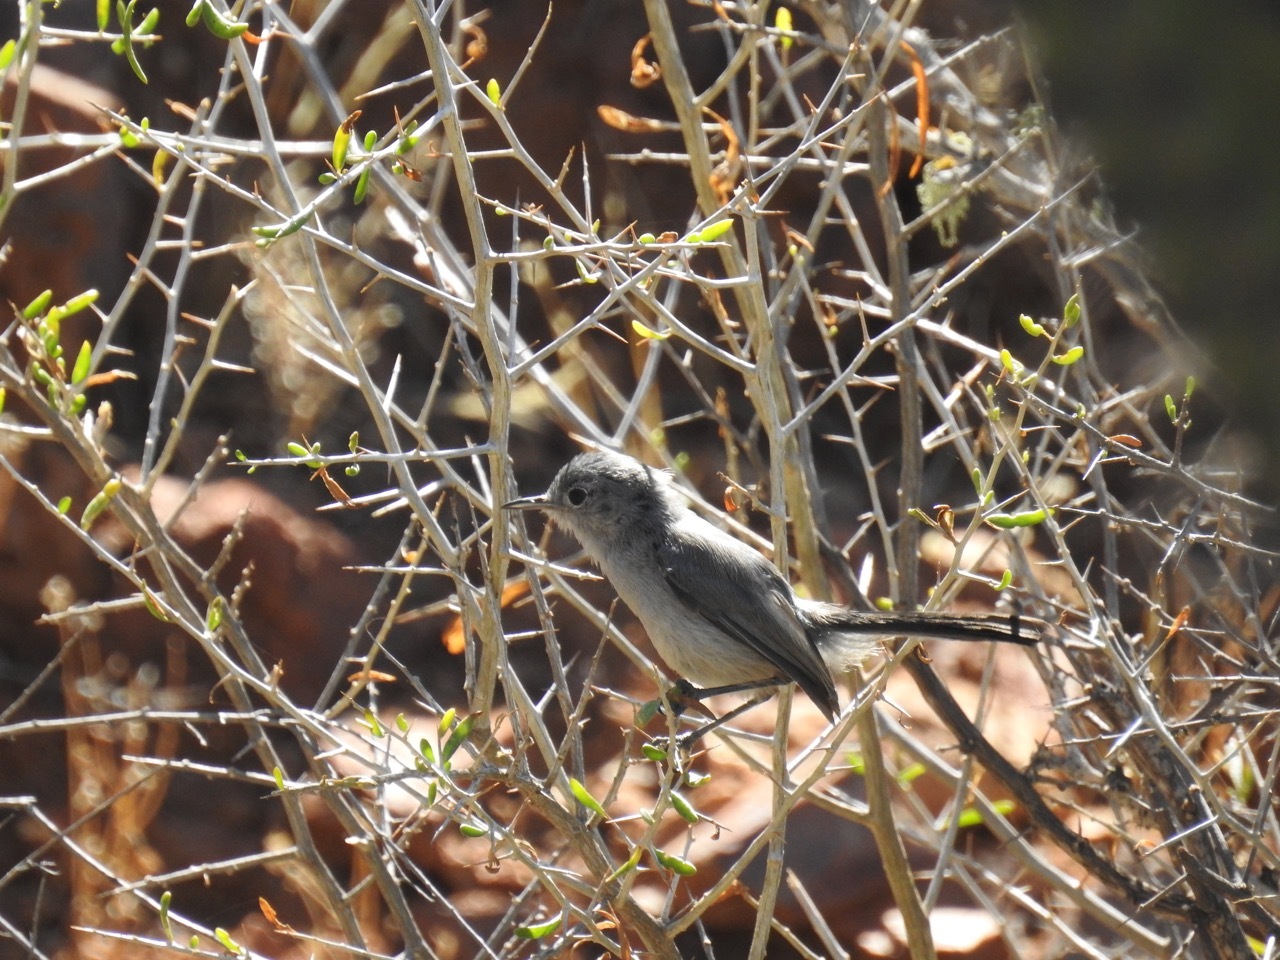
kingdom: Animalia
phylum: Chordata
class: Aves
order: Passeriformes
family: Polioptilidae
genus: Polioptila
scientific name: Polioptila californica
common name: California gnatcatcher
